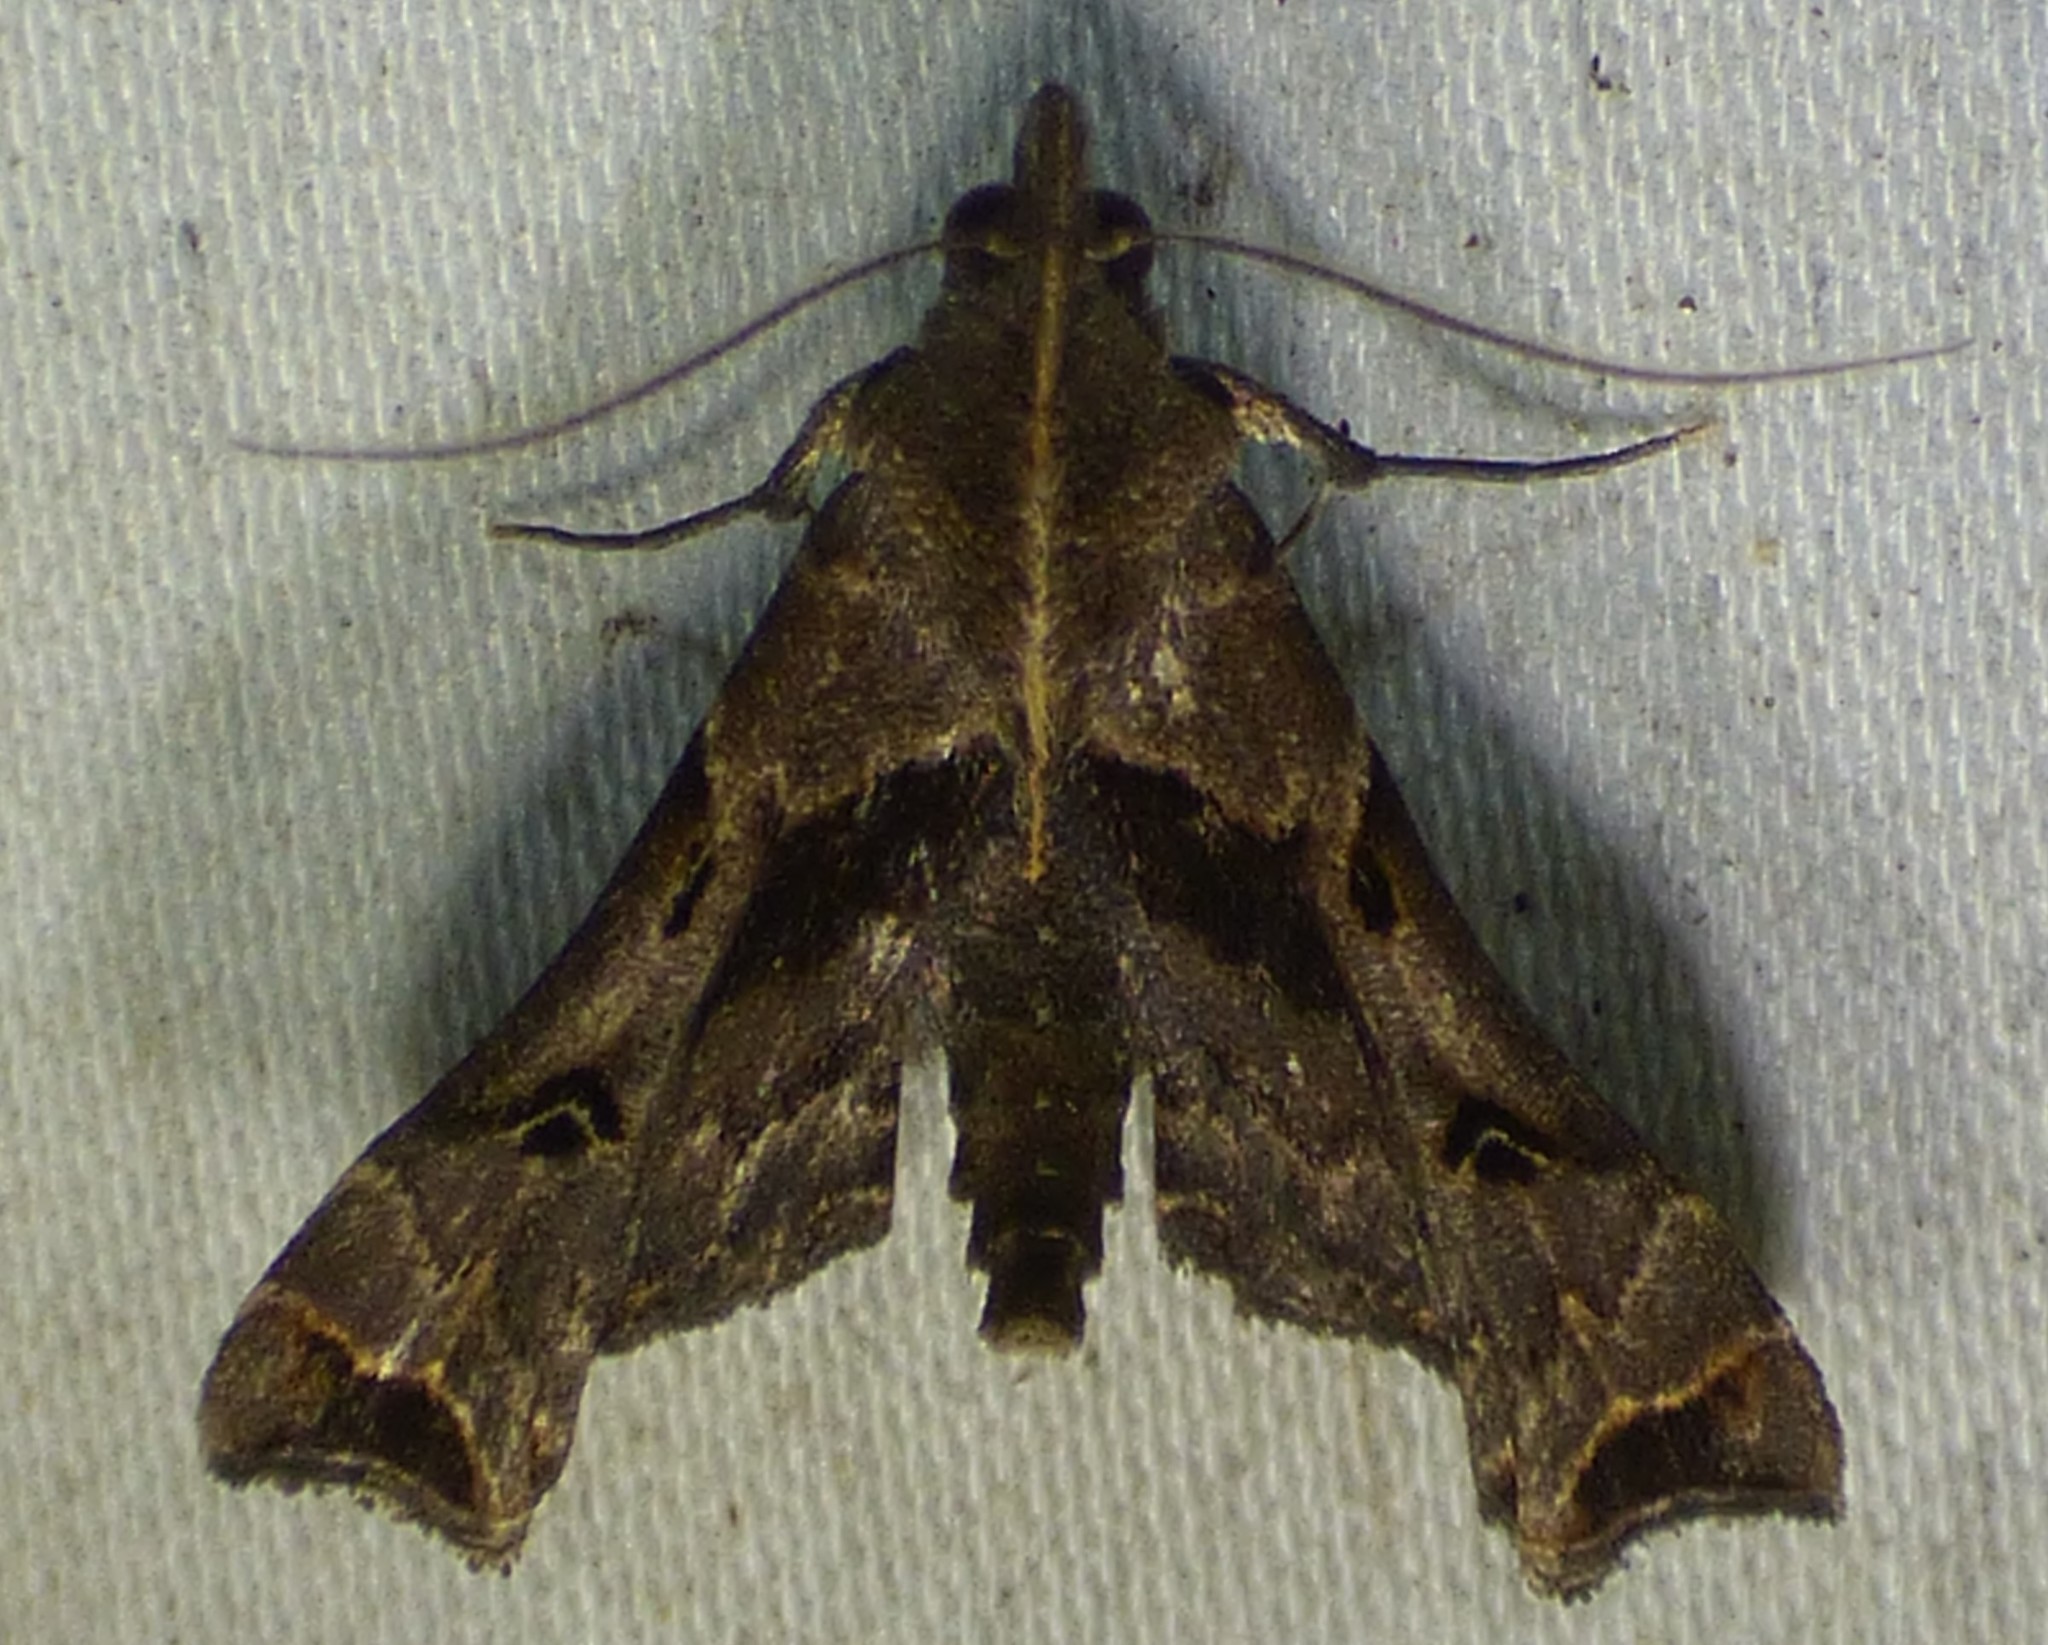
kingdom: Animalia
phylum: Arthropoda
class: Insecta
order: Lepidoptera
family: Erebidae
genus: Palthis
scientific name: Palthis asopialis
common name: Faint-spotted palthis moth
